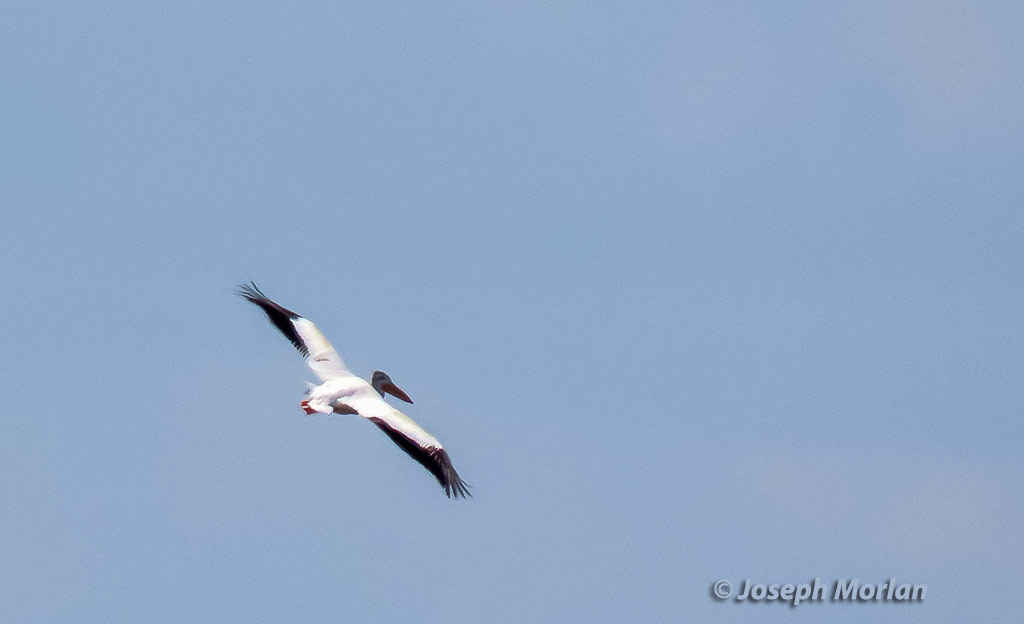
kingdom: Animalia
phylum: Chordata
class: Aves
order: Pelecaniformes
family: Pelecanidae
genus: Pelecanus
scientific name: Pelecanus erythrorhynchos
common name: American white pelican
